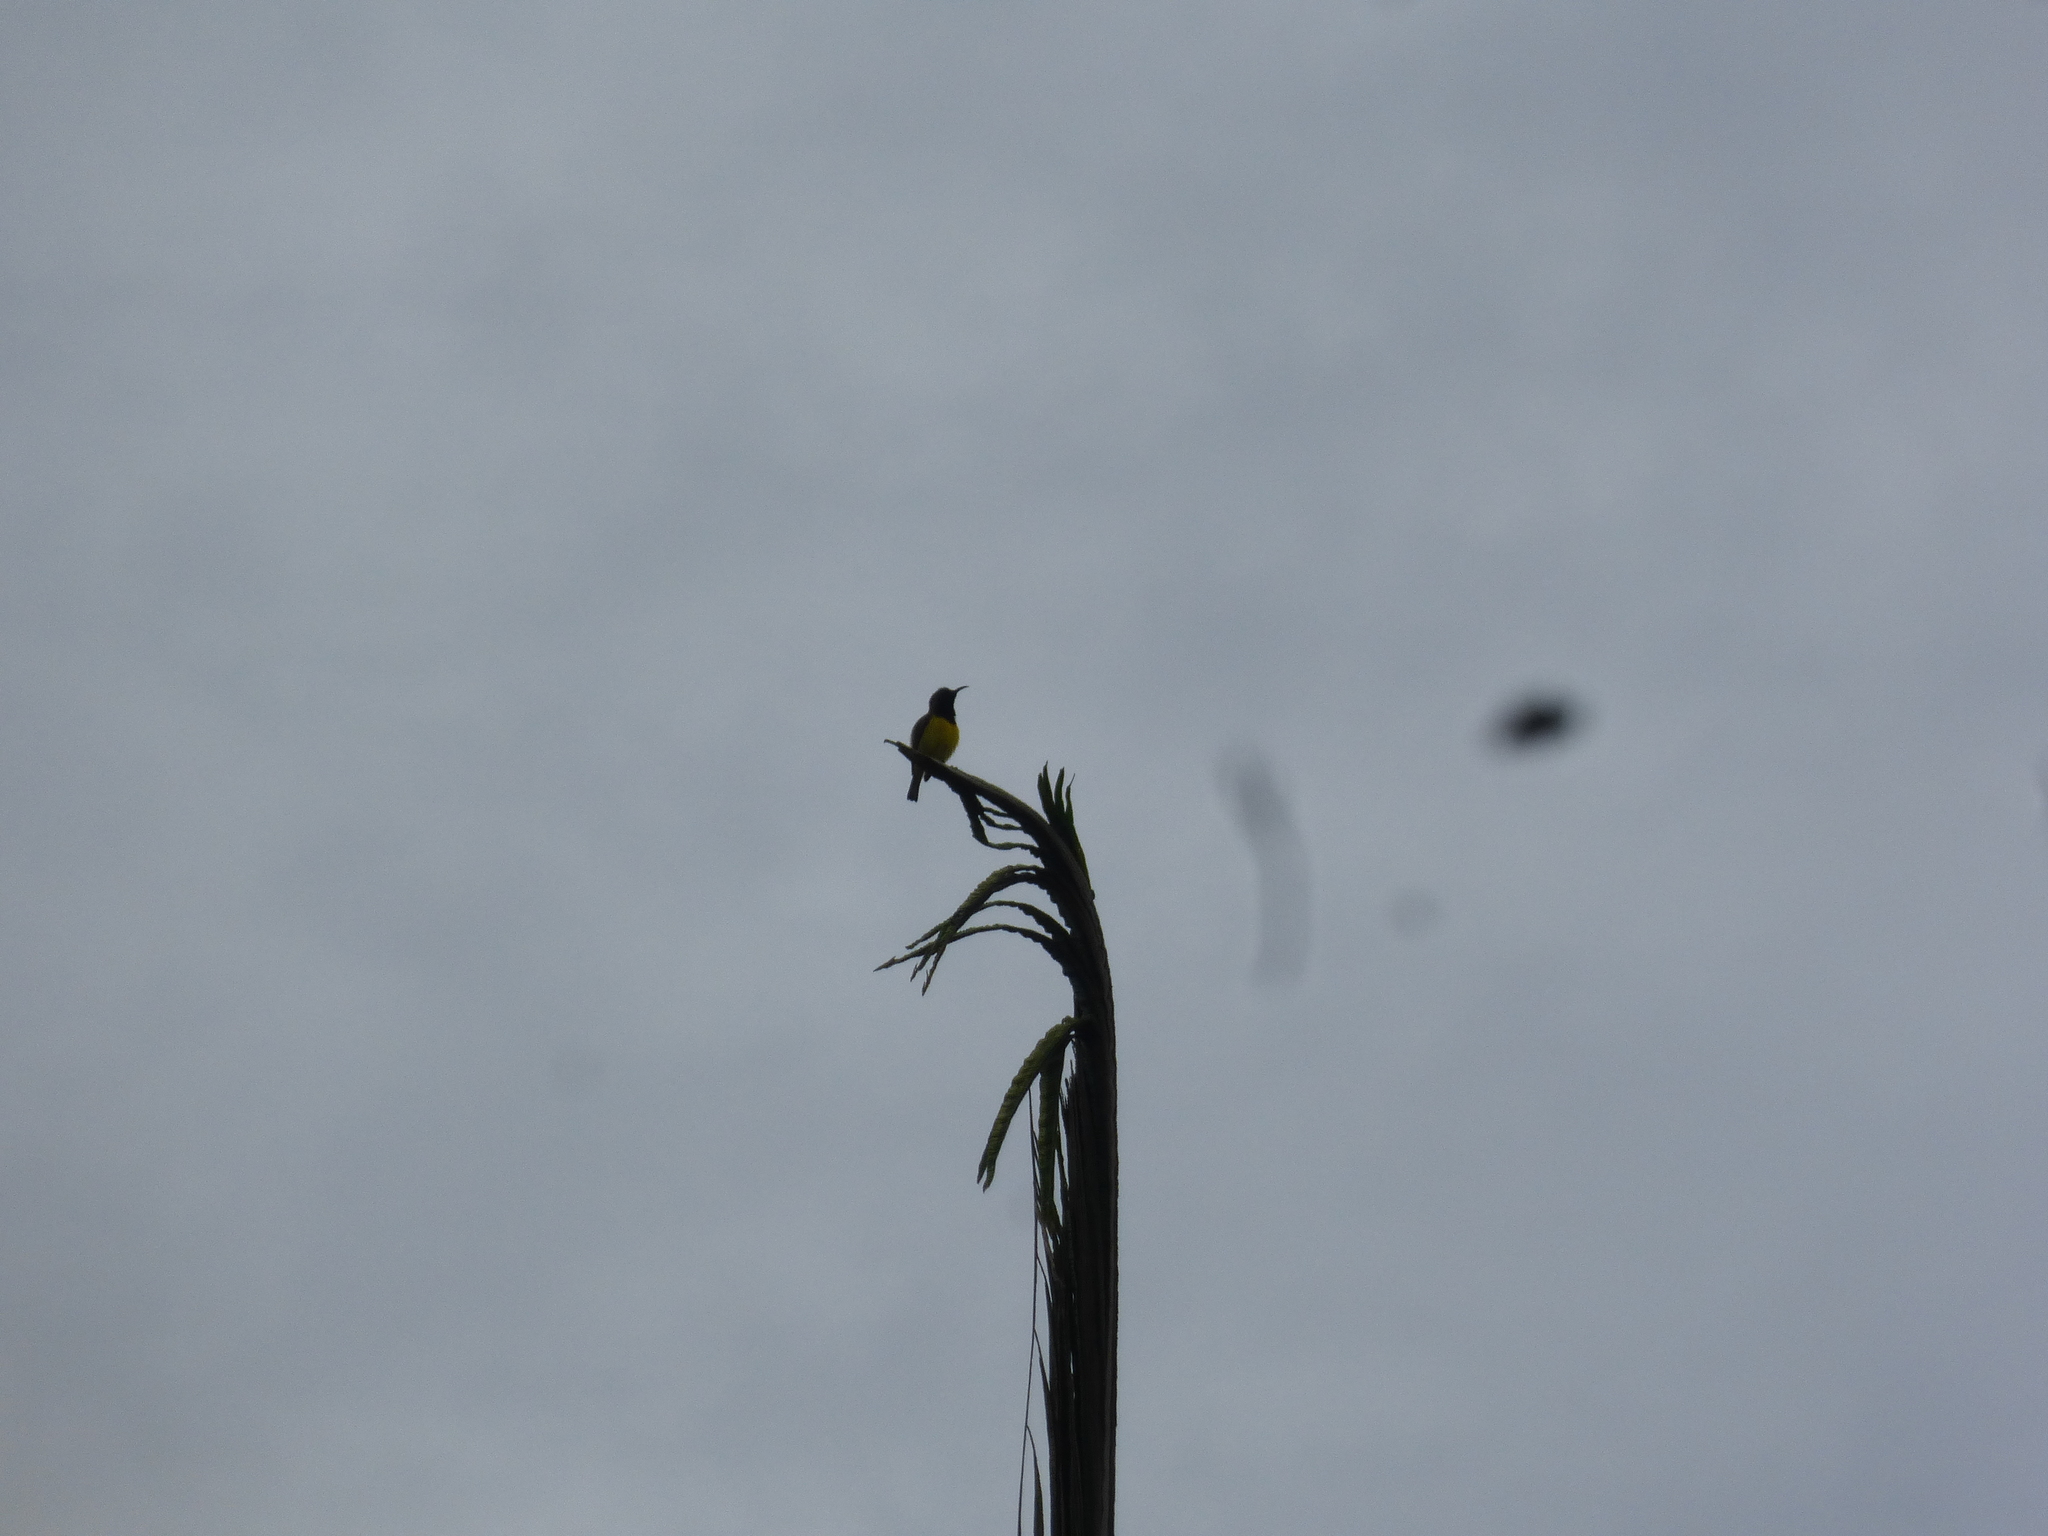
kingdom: Animalia
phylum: Chordata
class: Aves
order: Passeriformes
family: Nectariniidae
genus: Cinnyris
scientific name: Cinnyris
